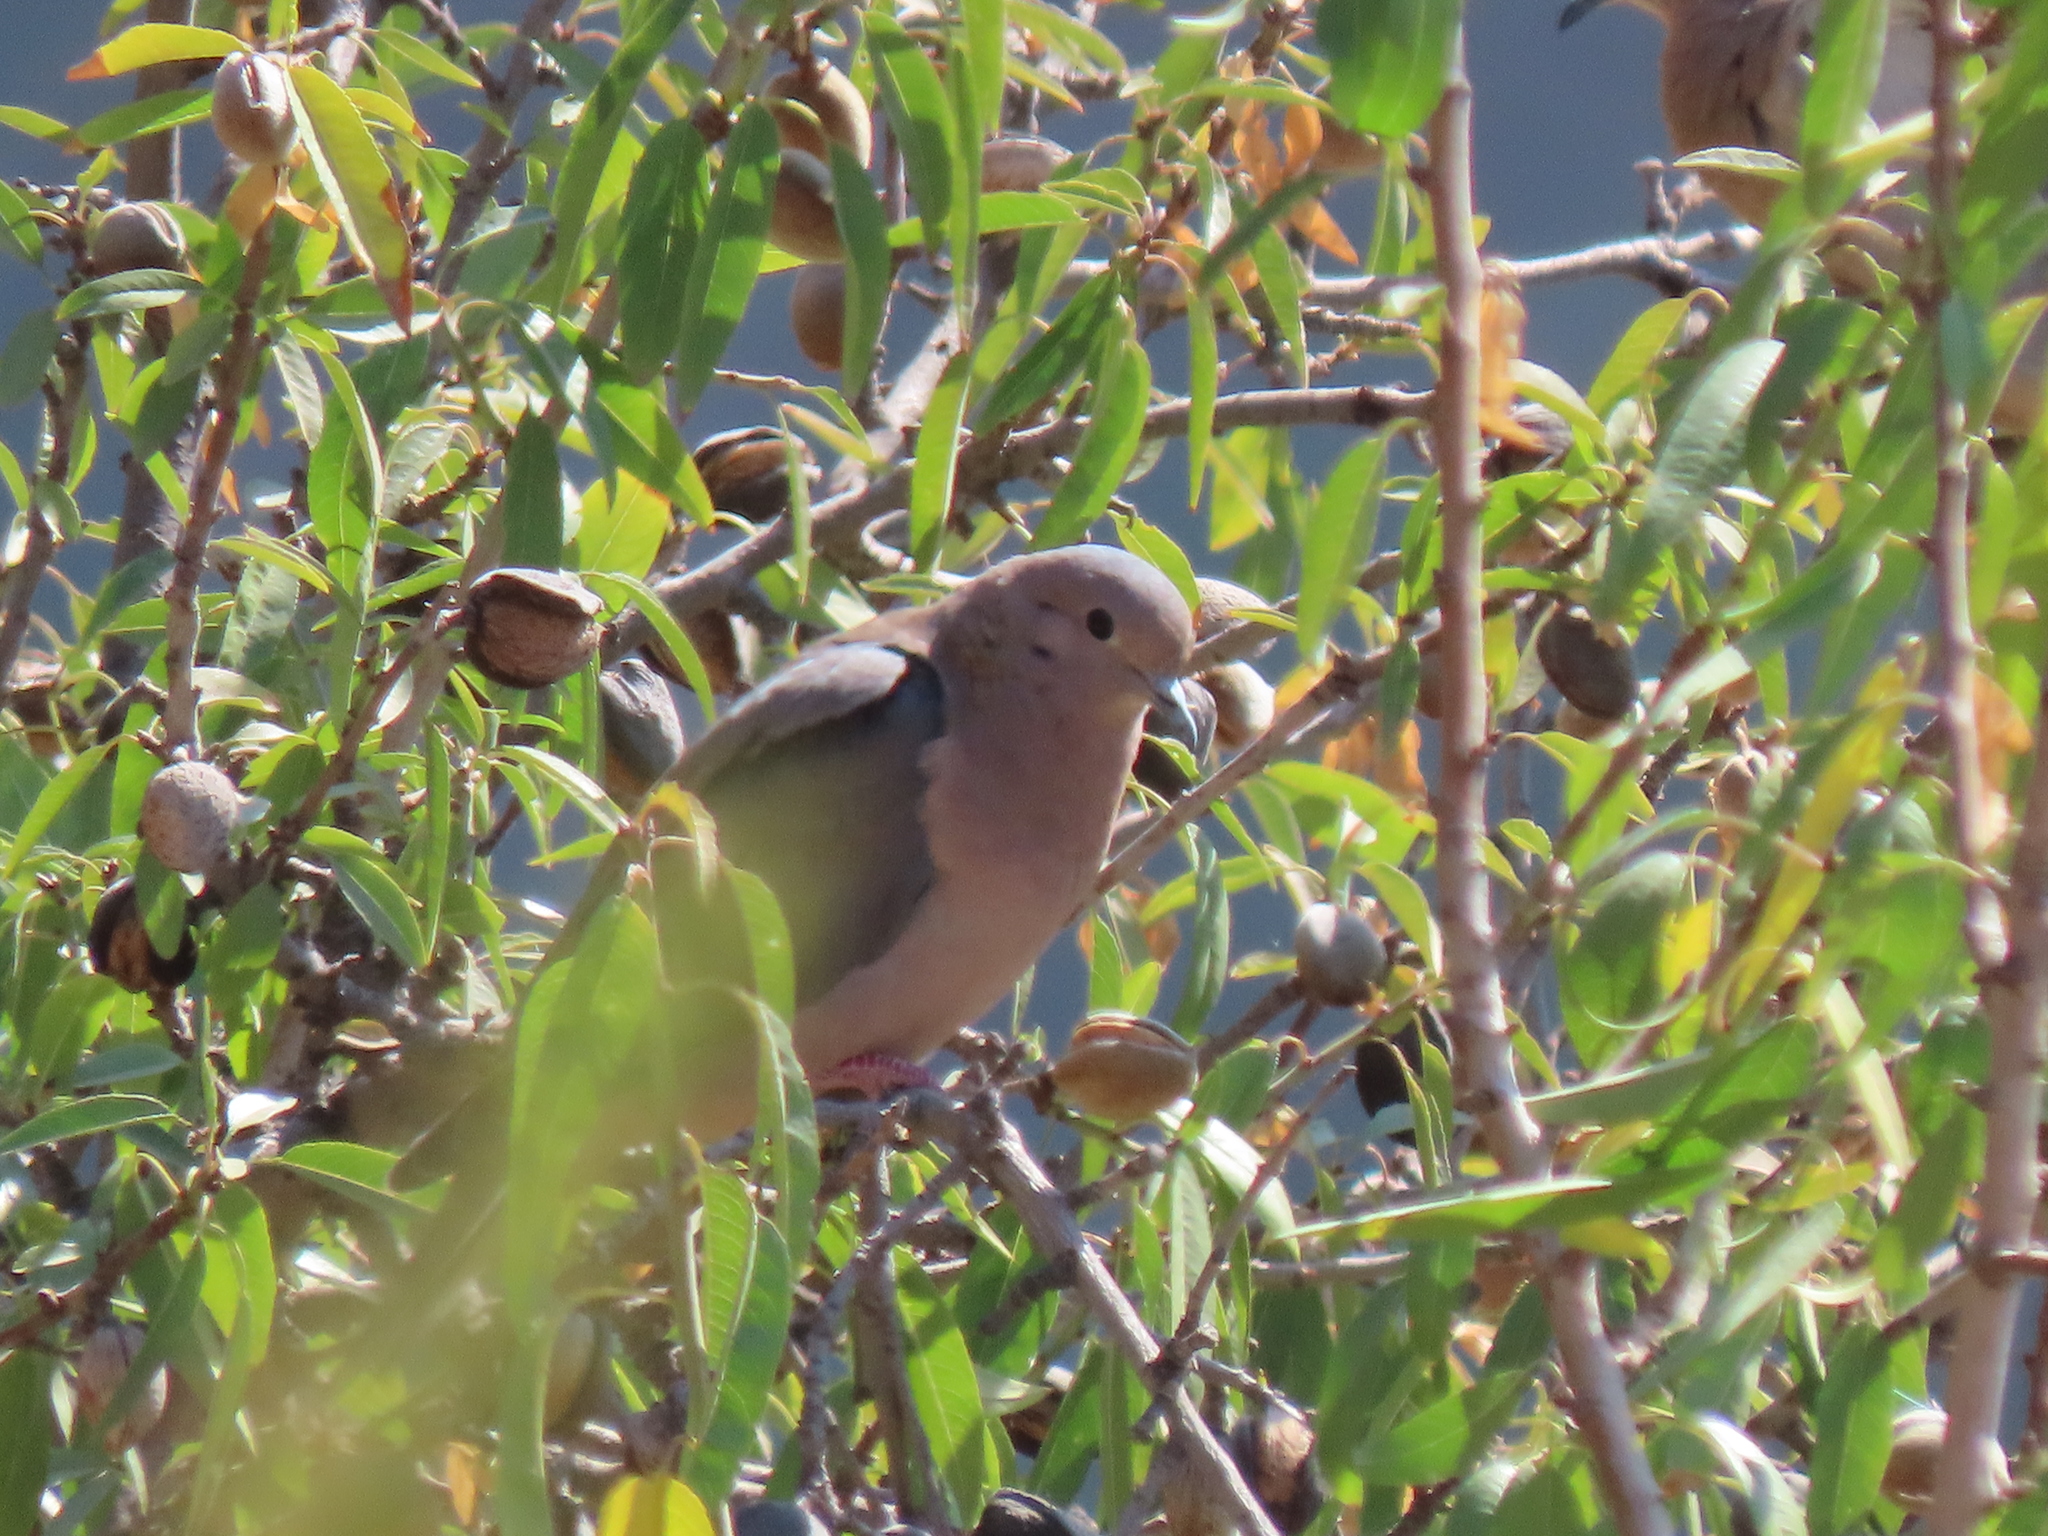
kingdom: Animalia
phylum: Chordata
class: Aves
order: Columbiformes
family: Columbidae
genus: Zenaida
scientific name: Zenaida auriculata
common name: Eared dove
